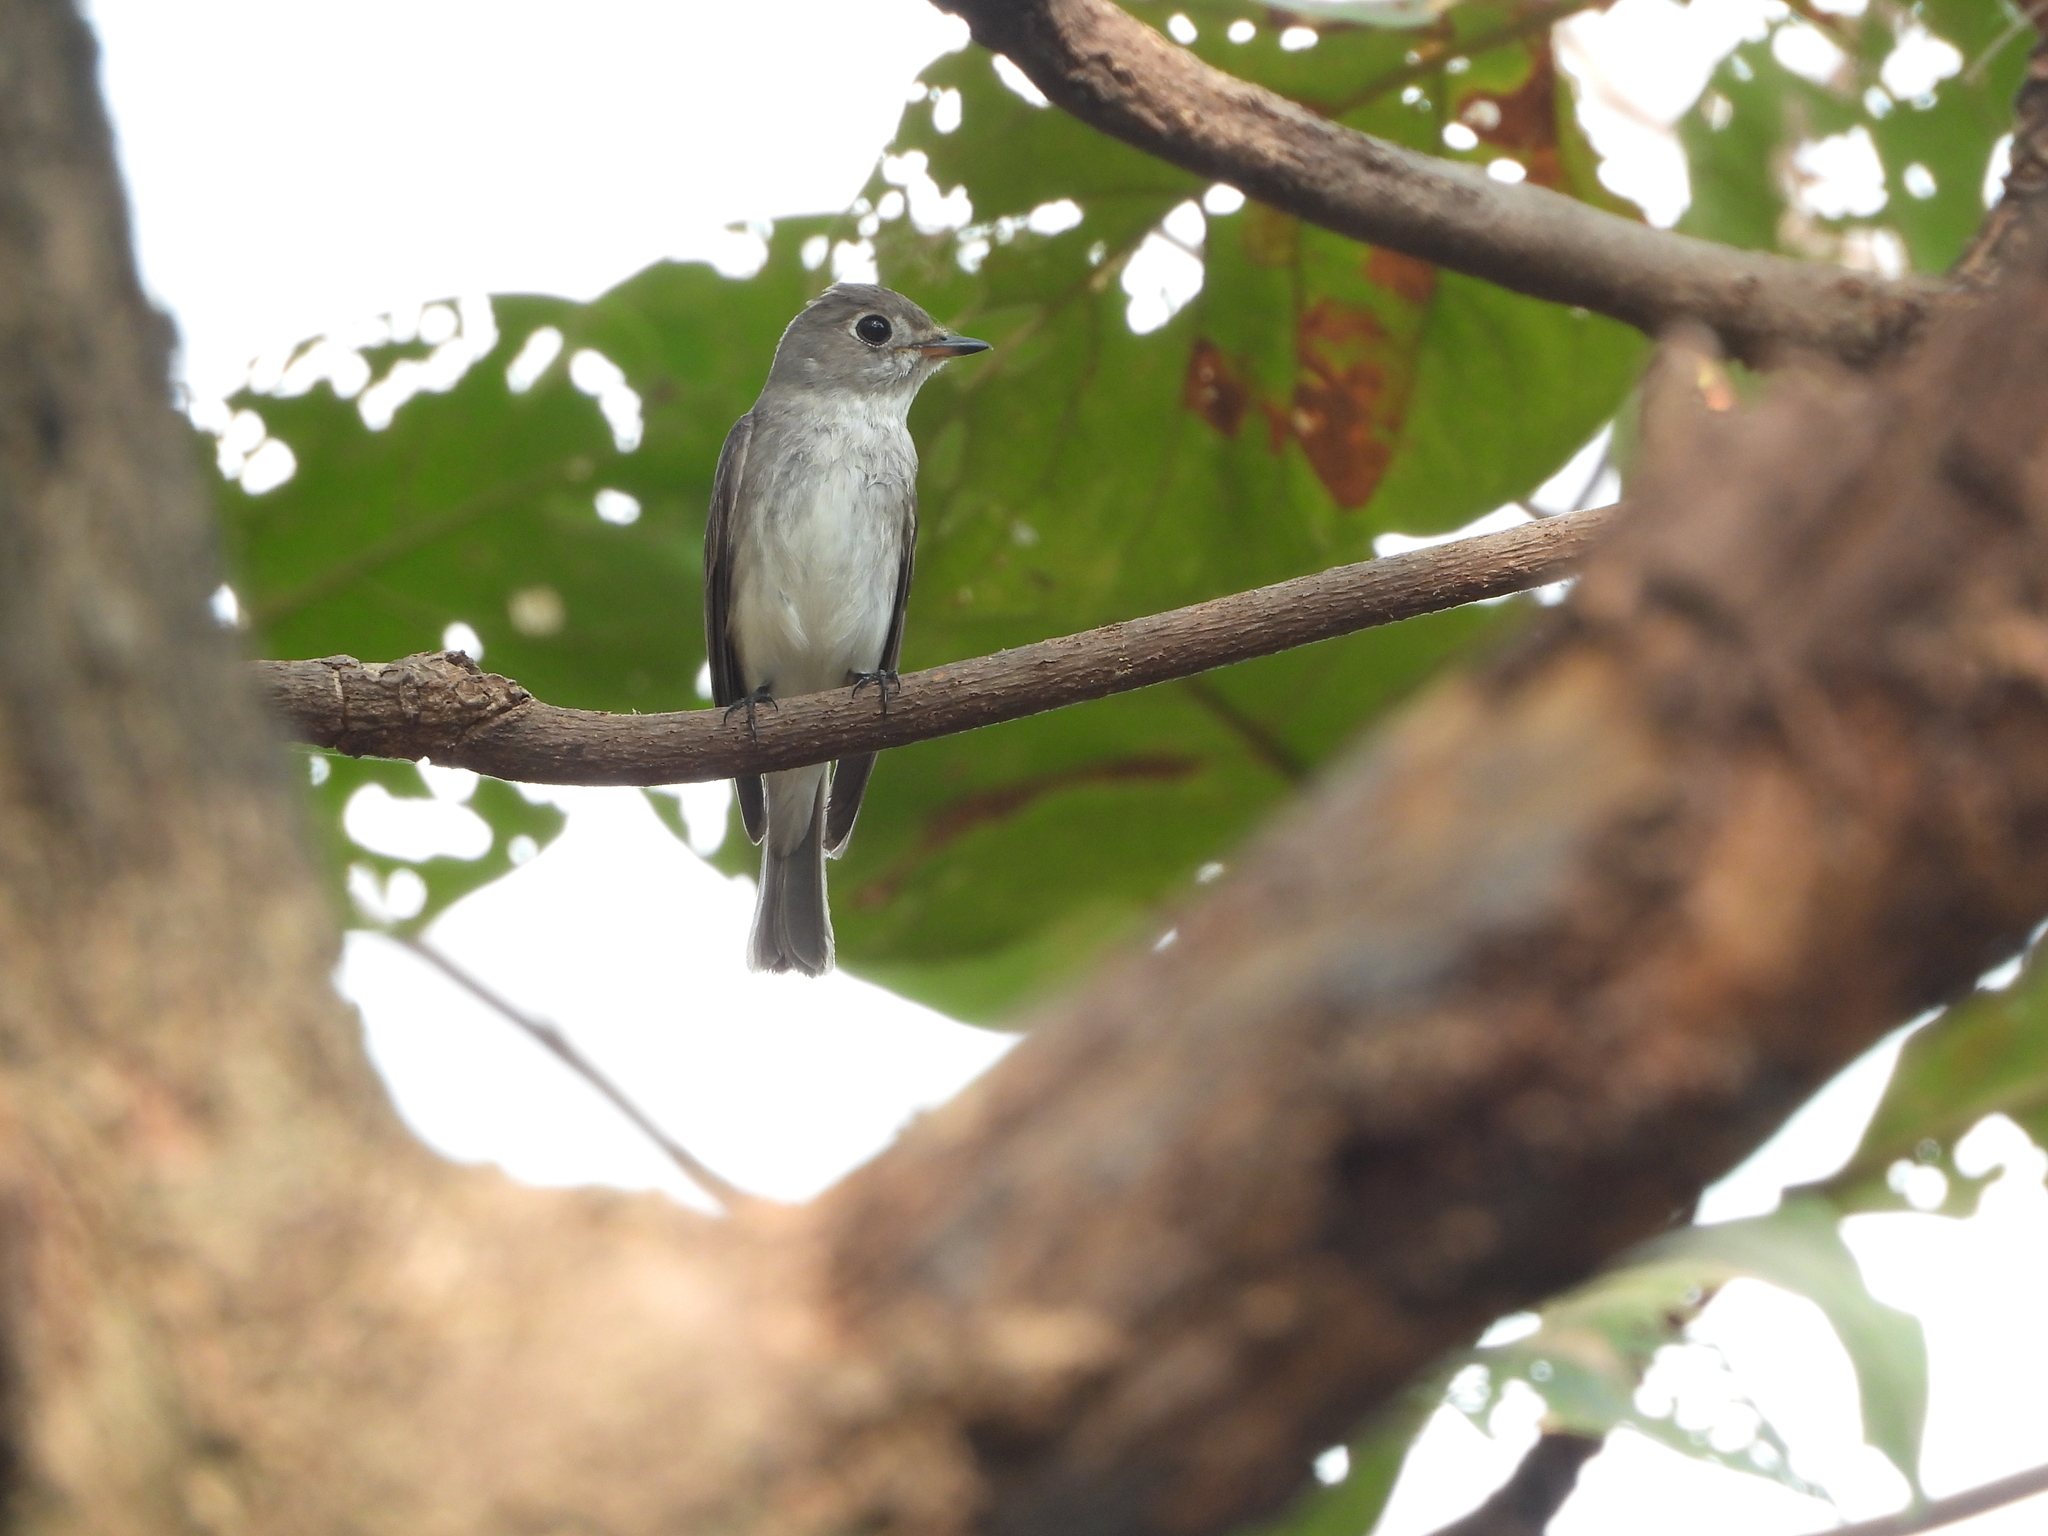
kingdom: Animalia
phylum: Chordata
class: Aves
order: Passeriformes
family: Muscicapidae
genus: Muscicapa
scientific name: Muscicapa latirostris
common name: Asian brown flycatcher
